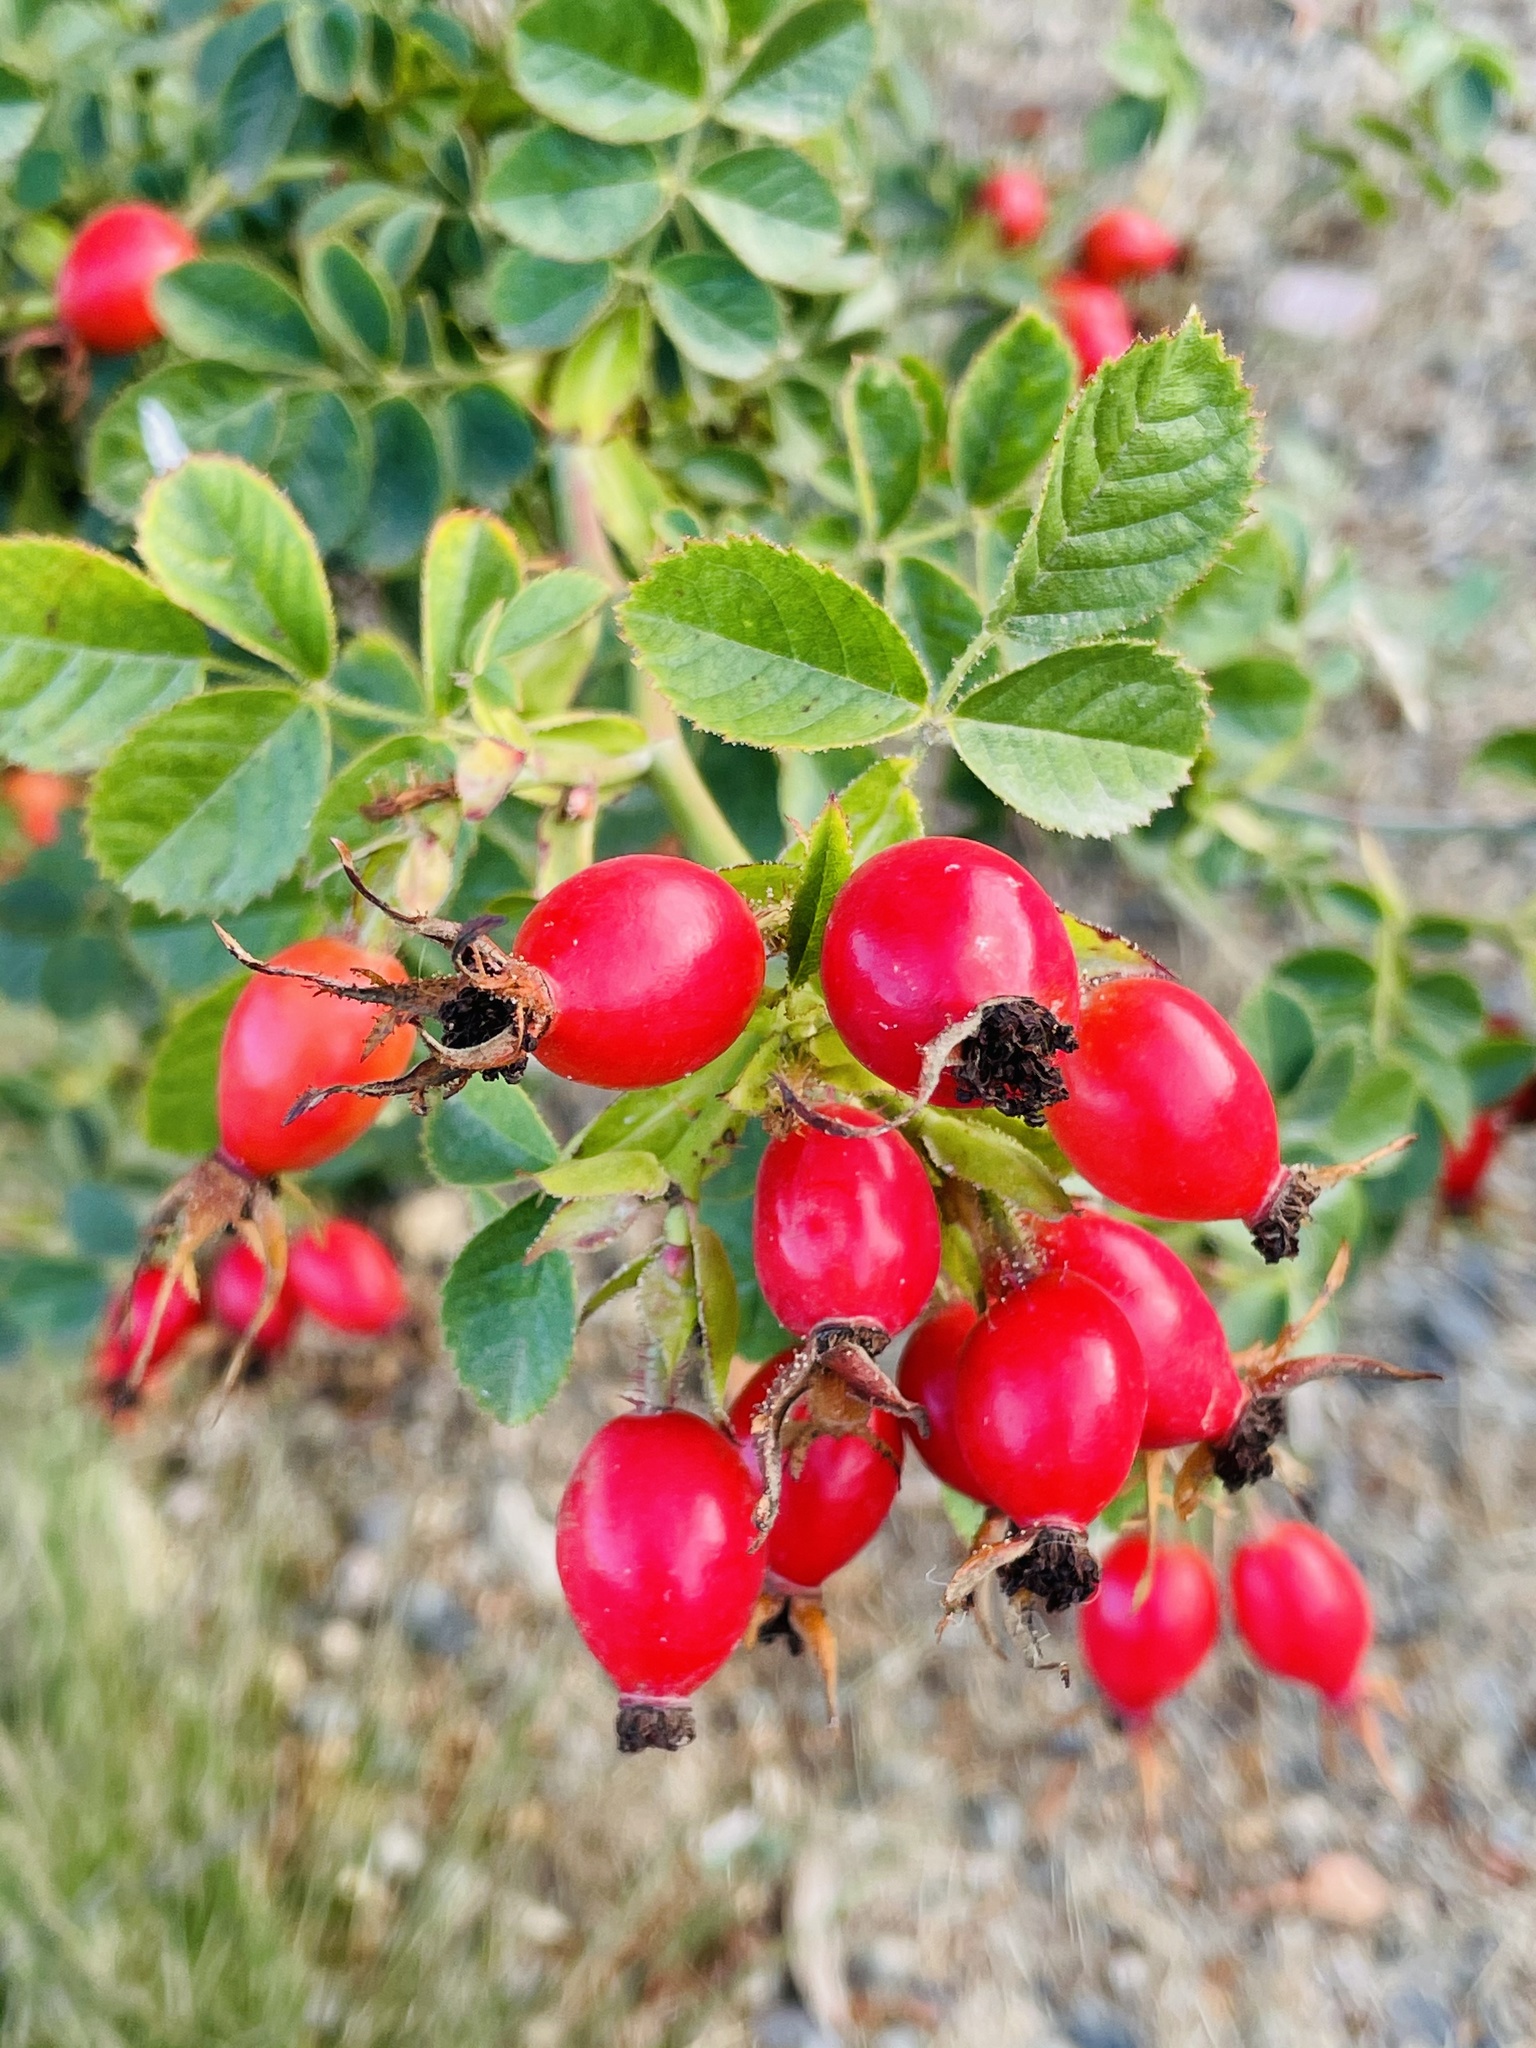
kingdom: Plantae
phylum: Tracheophyta
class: Magnoliopsida
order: Rosales
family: Rosaceae
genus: Rosa
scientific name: Rosa rubiginosa
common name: Sweet-briar
